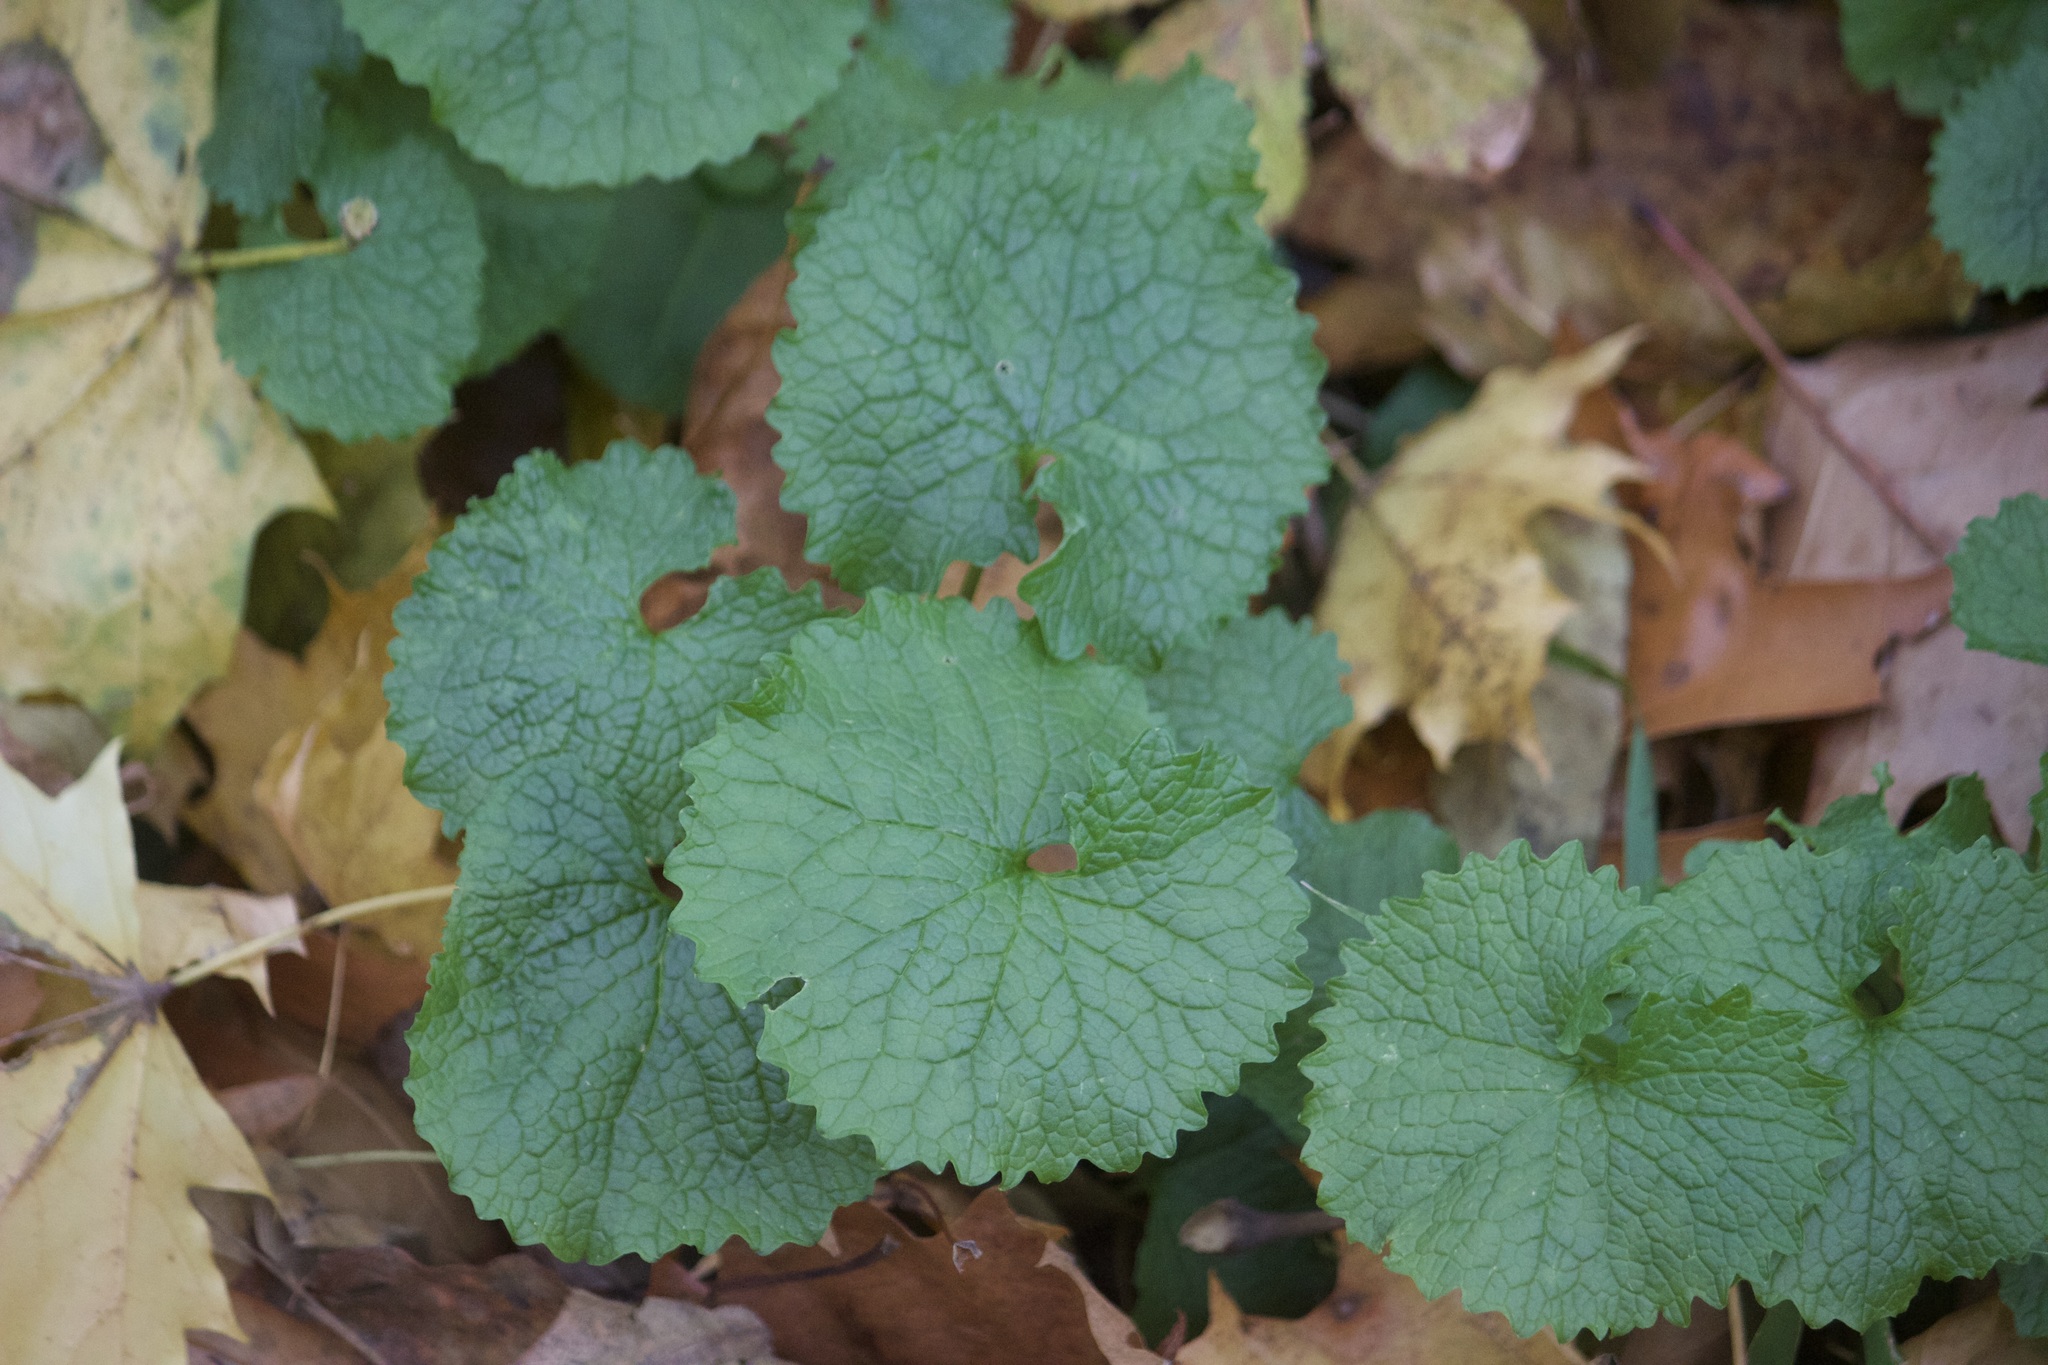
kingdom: Plantae
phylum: Tracheophyta
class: Magnoliopsida
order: Brassicales
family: Brassicaceae
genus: Alliaria
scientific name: Alliaria petiolata
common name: Garlic mustard
